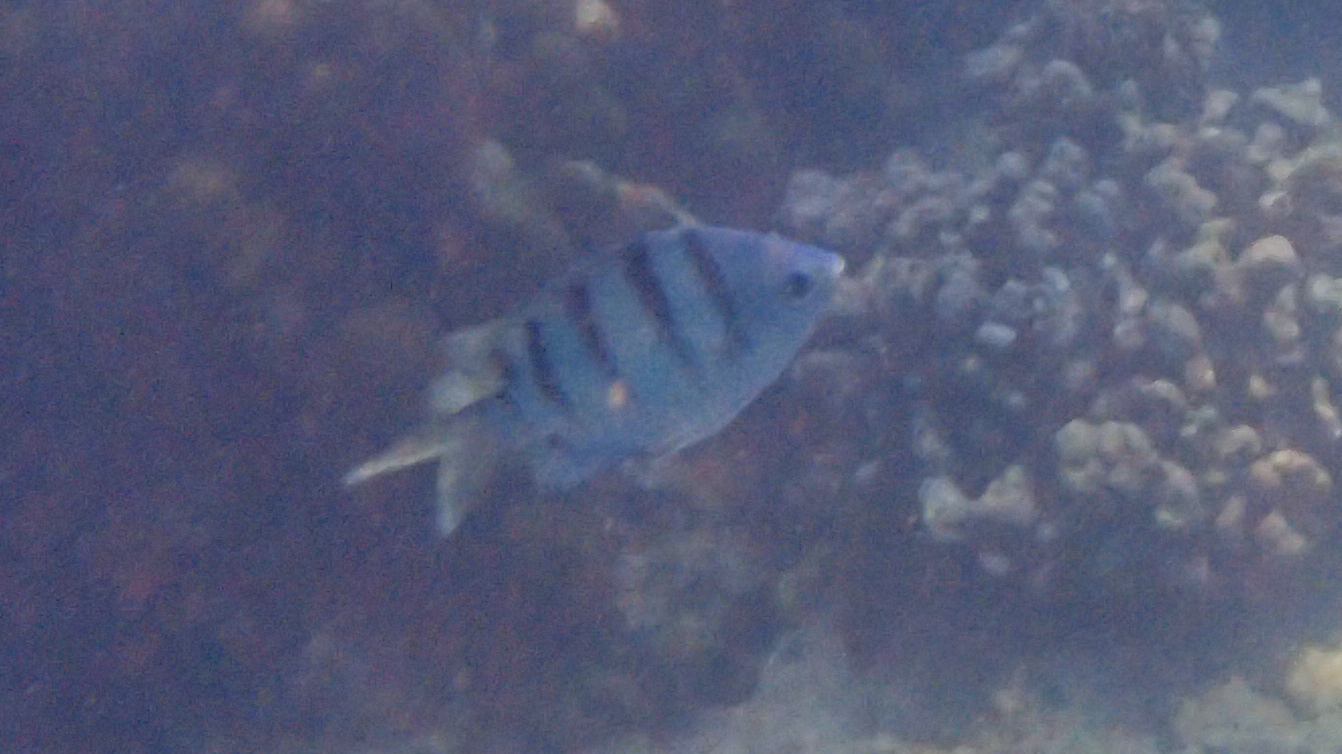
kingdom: Animalia
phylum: Chordata
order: Perciformes
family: Pomacentridae
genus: Abudefduf
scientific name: Abudefduf abdominalis
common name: Green damselfish
